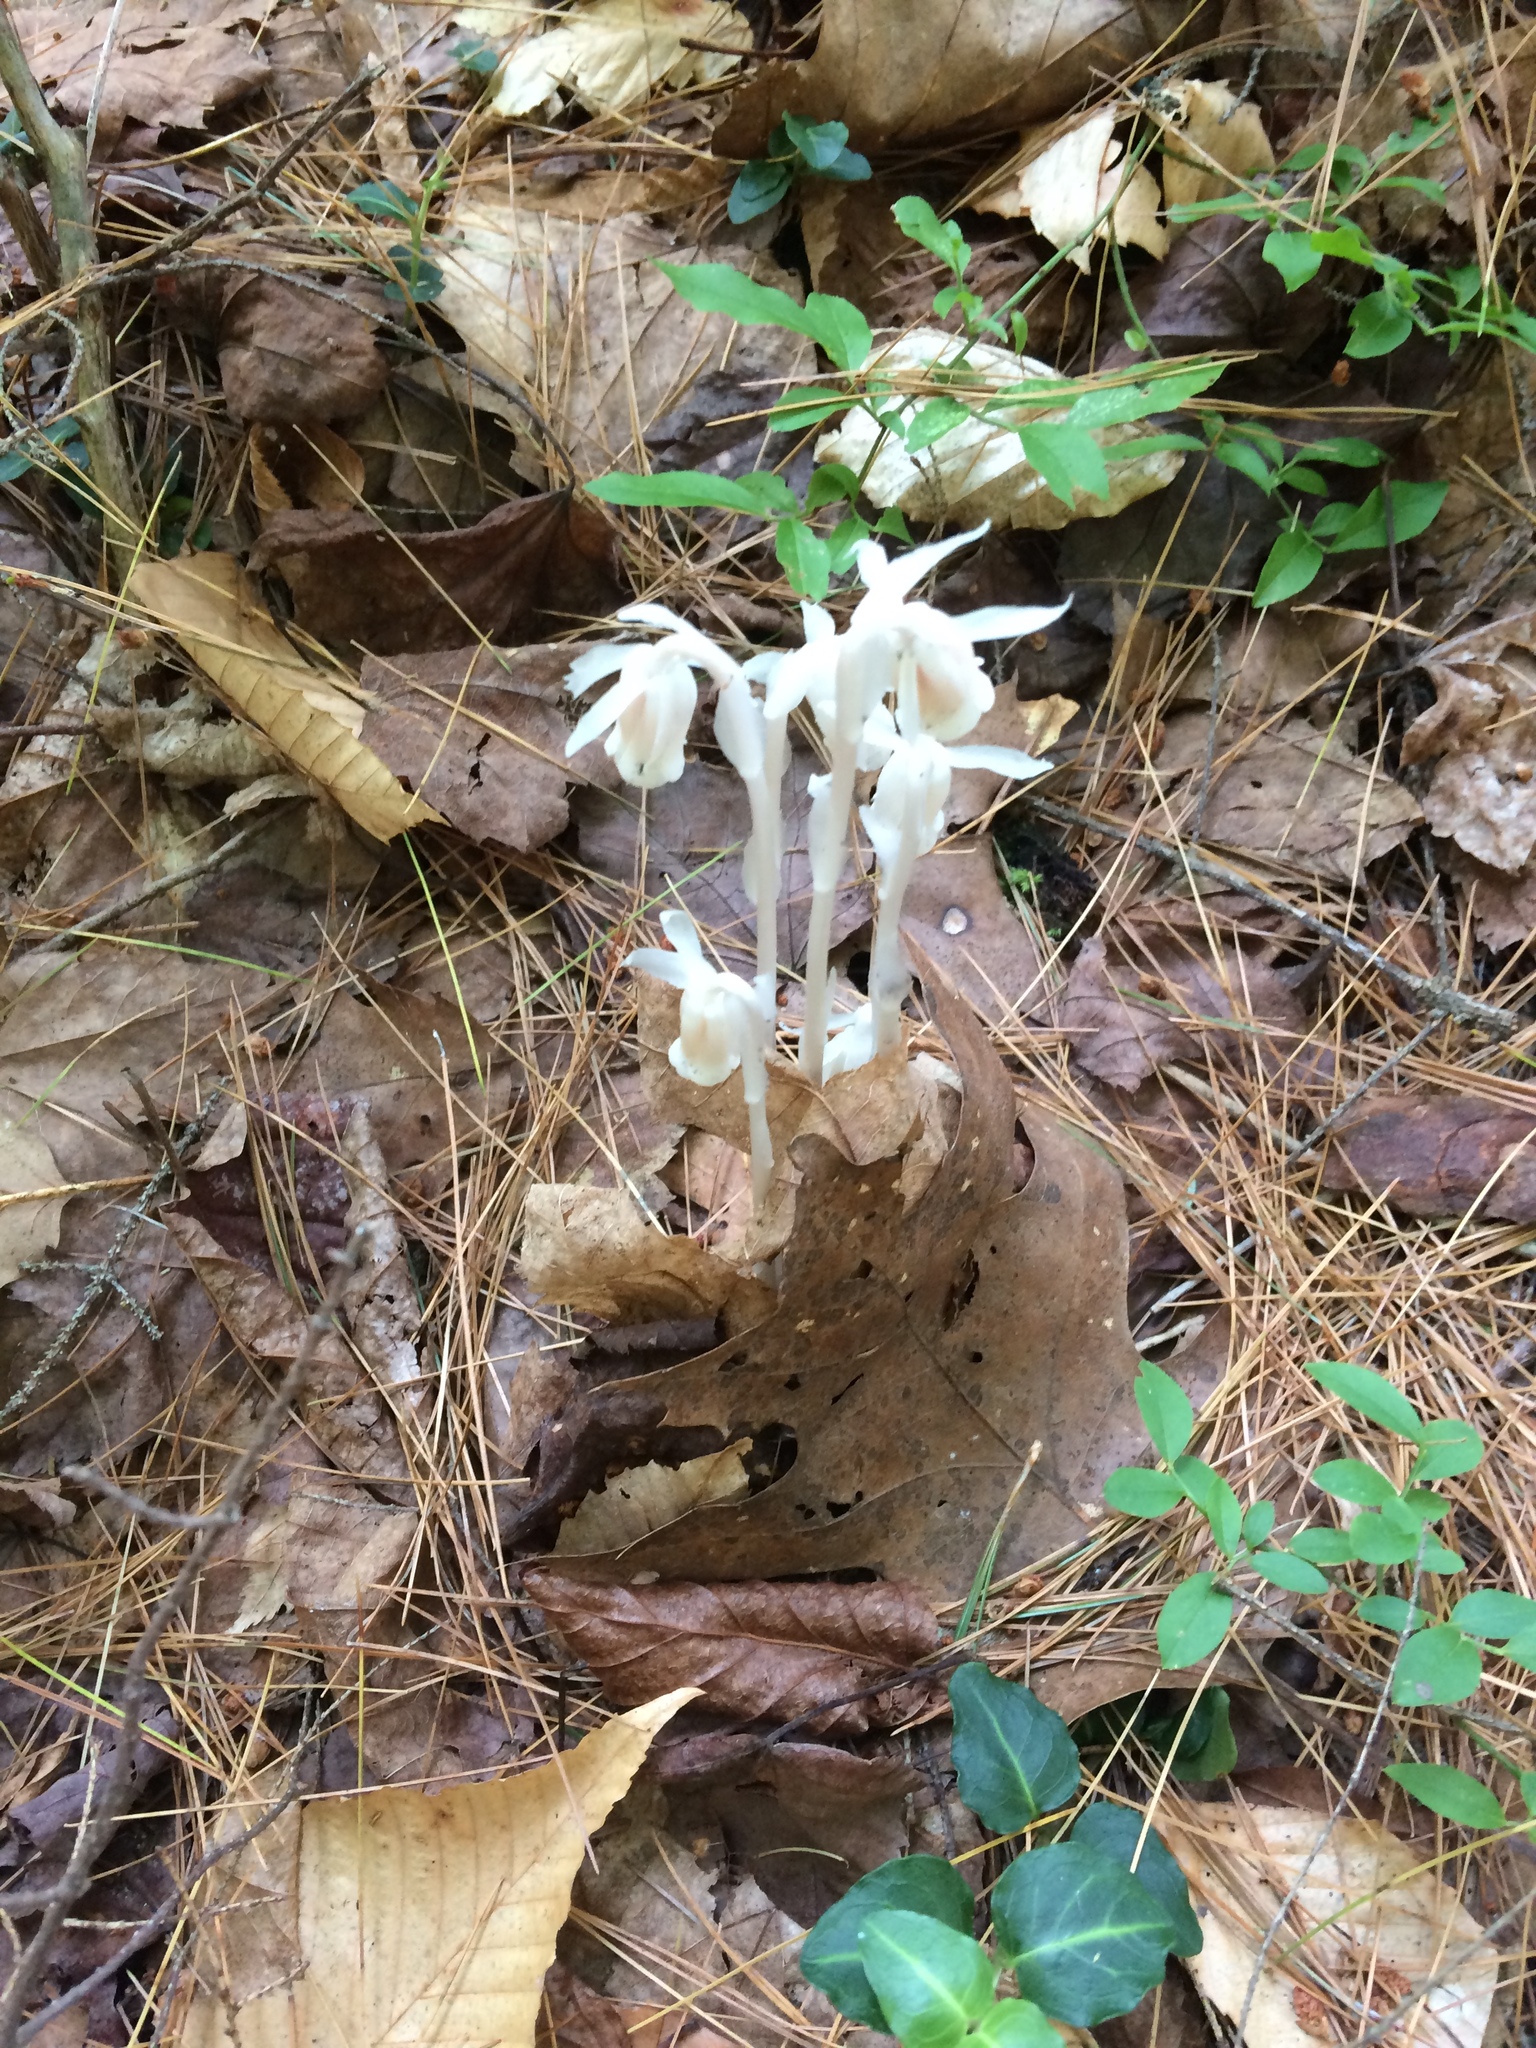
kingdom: Plantae
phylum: Tracheophyta
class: Magnoliopsida
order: Ericales
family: Ericaceae
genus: Monotropa
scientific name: Monotropa uniflora
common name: Convulsion root
